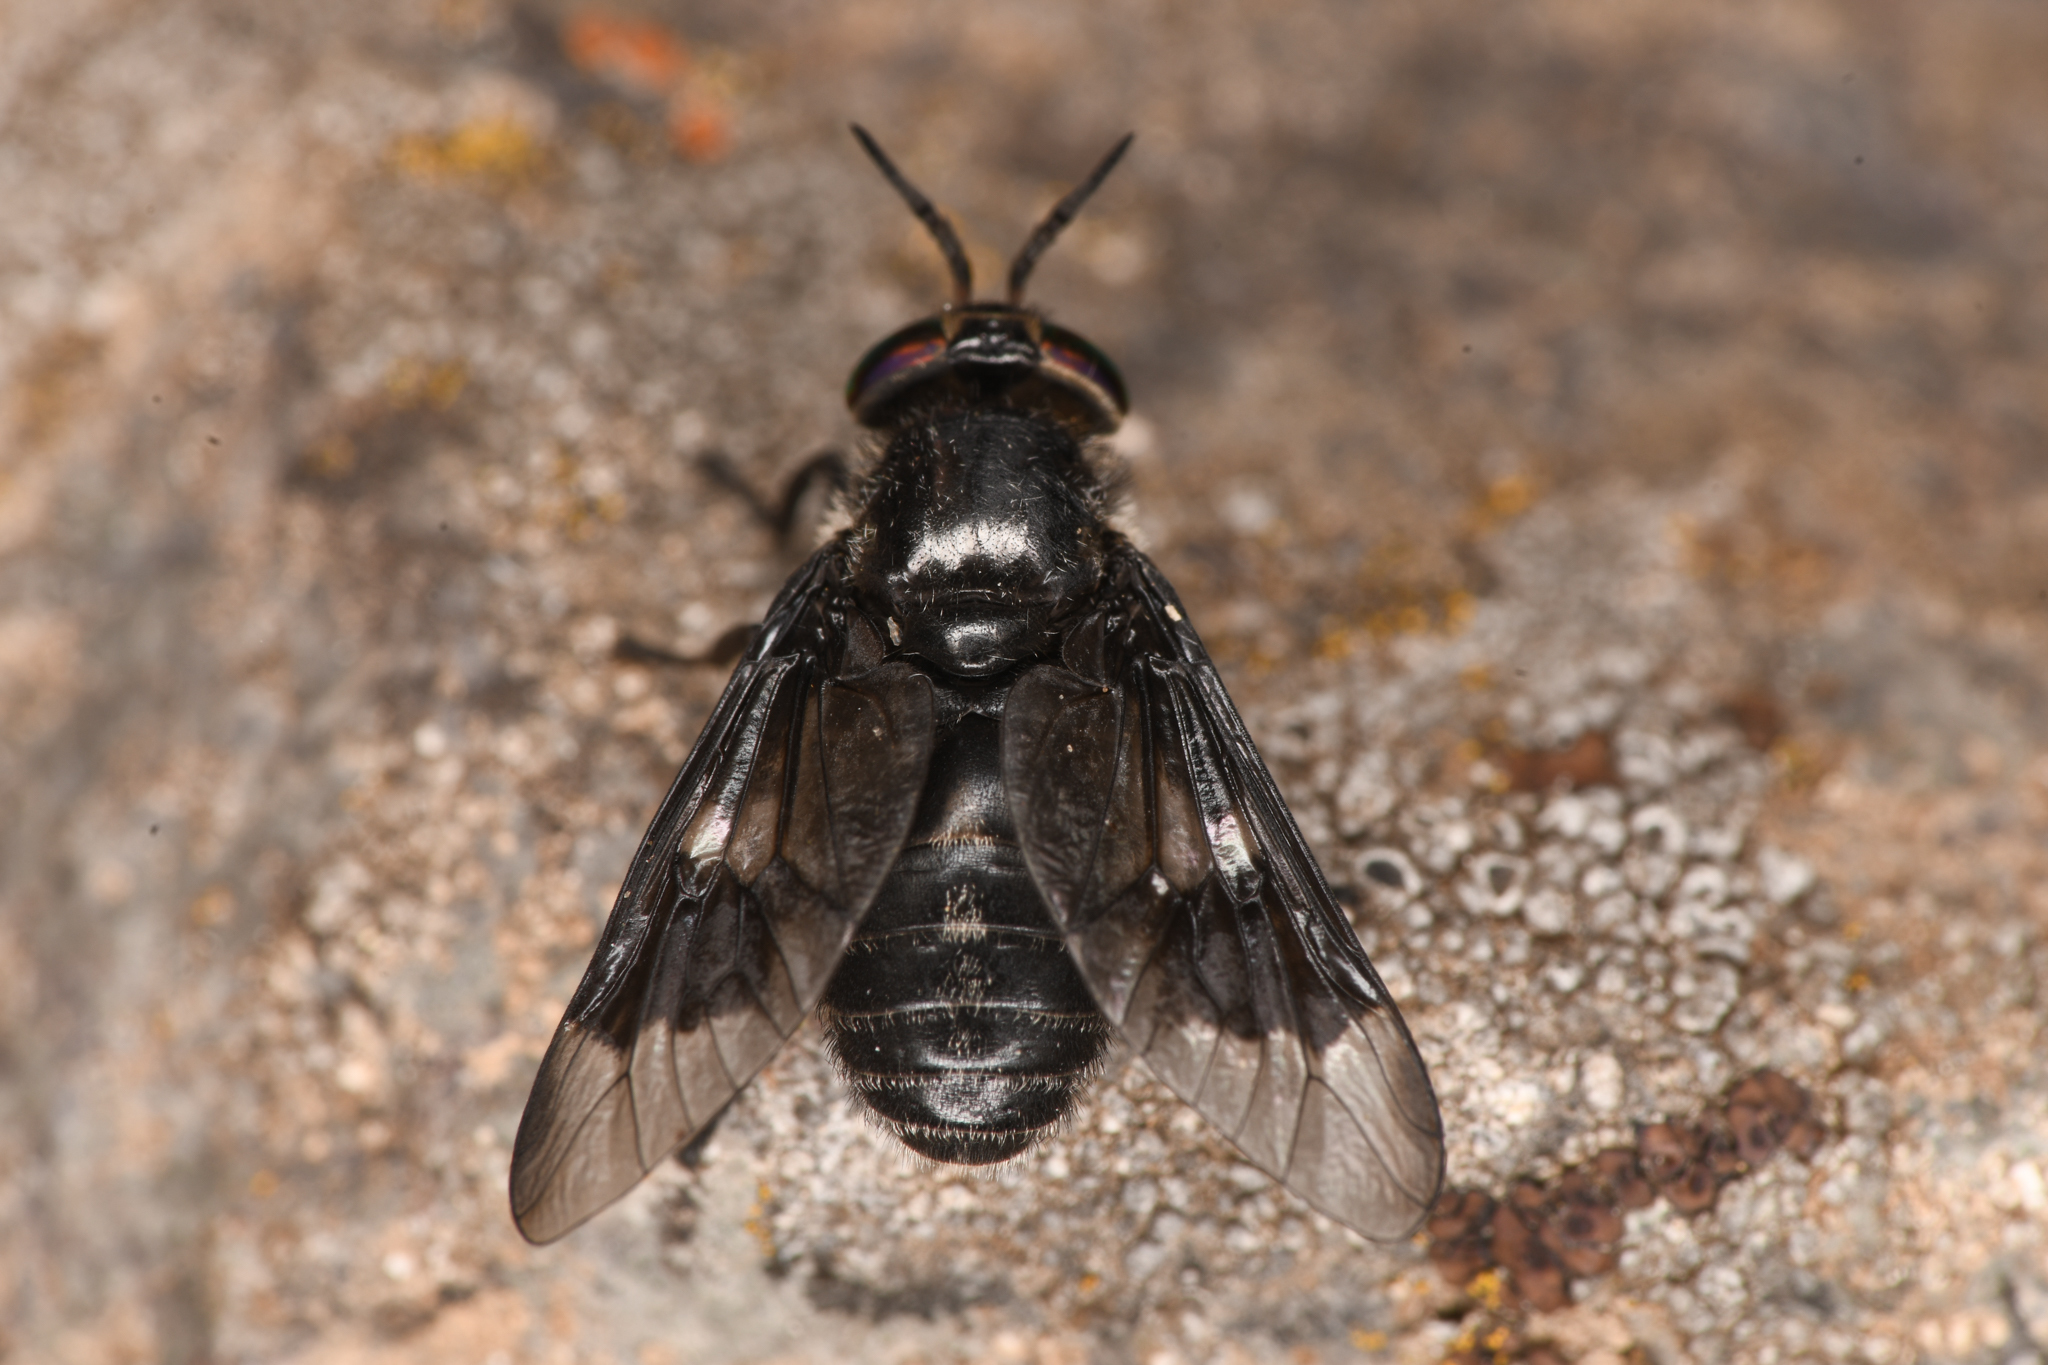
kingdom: Animalia
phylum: Arthropoda
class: Insecta
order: Diptera
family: Tabanidae
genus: Chrysops
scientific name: Chrysops noctifer
